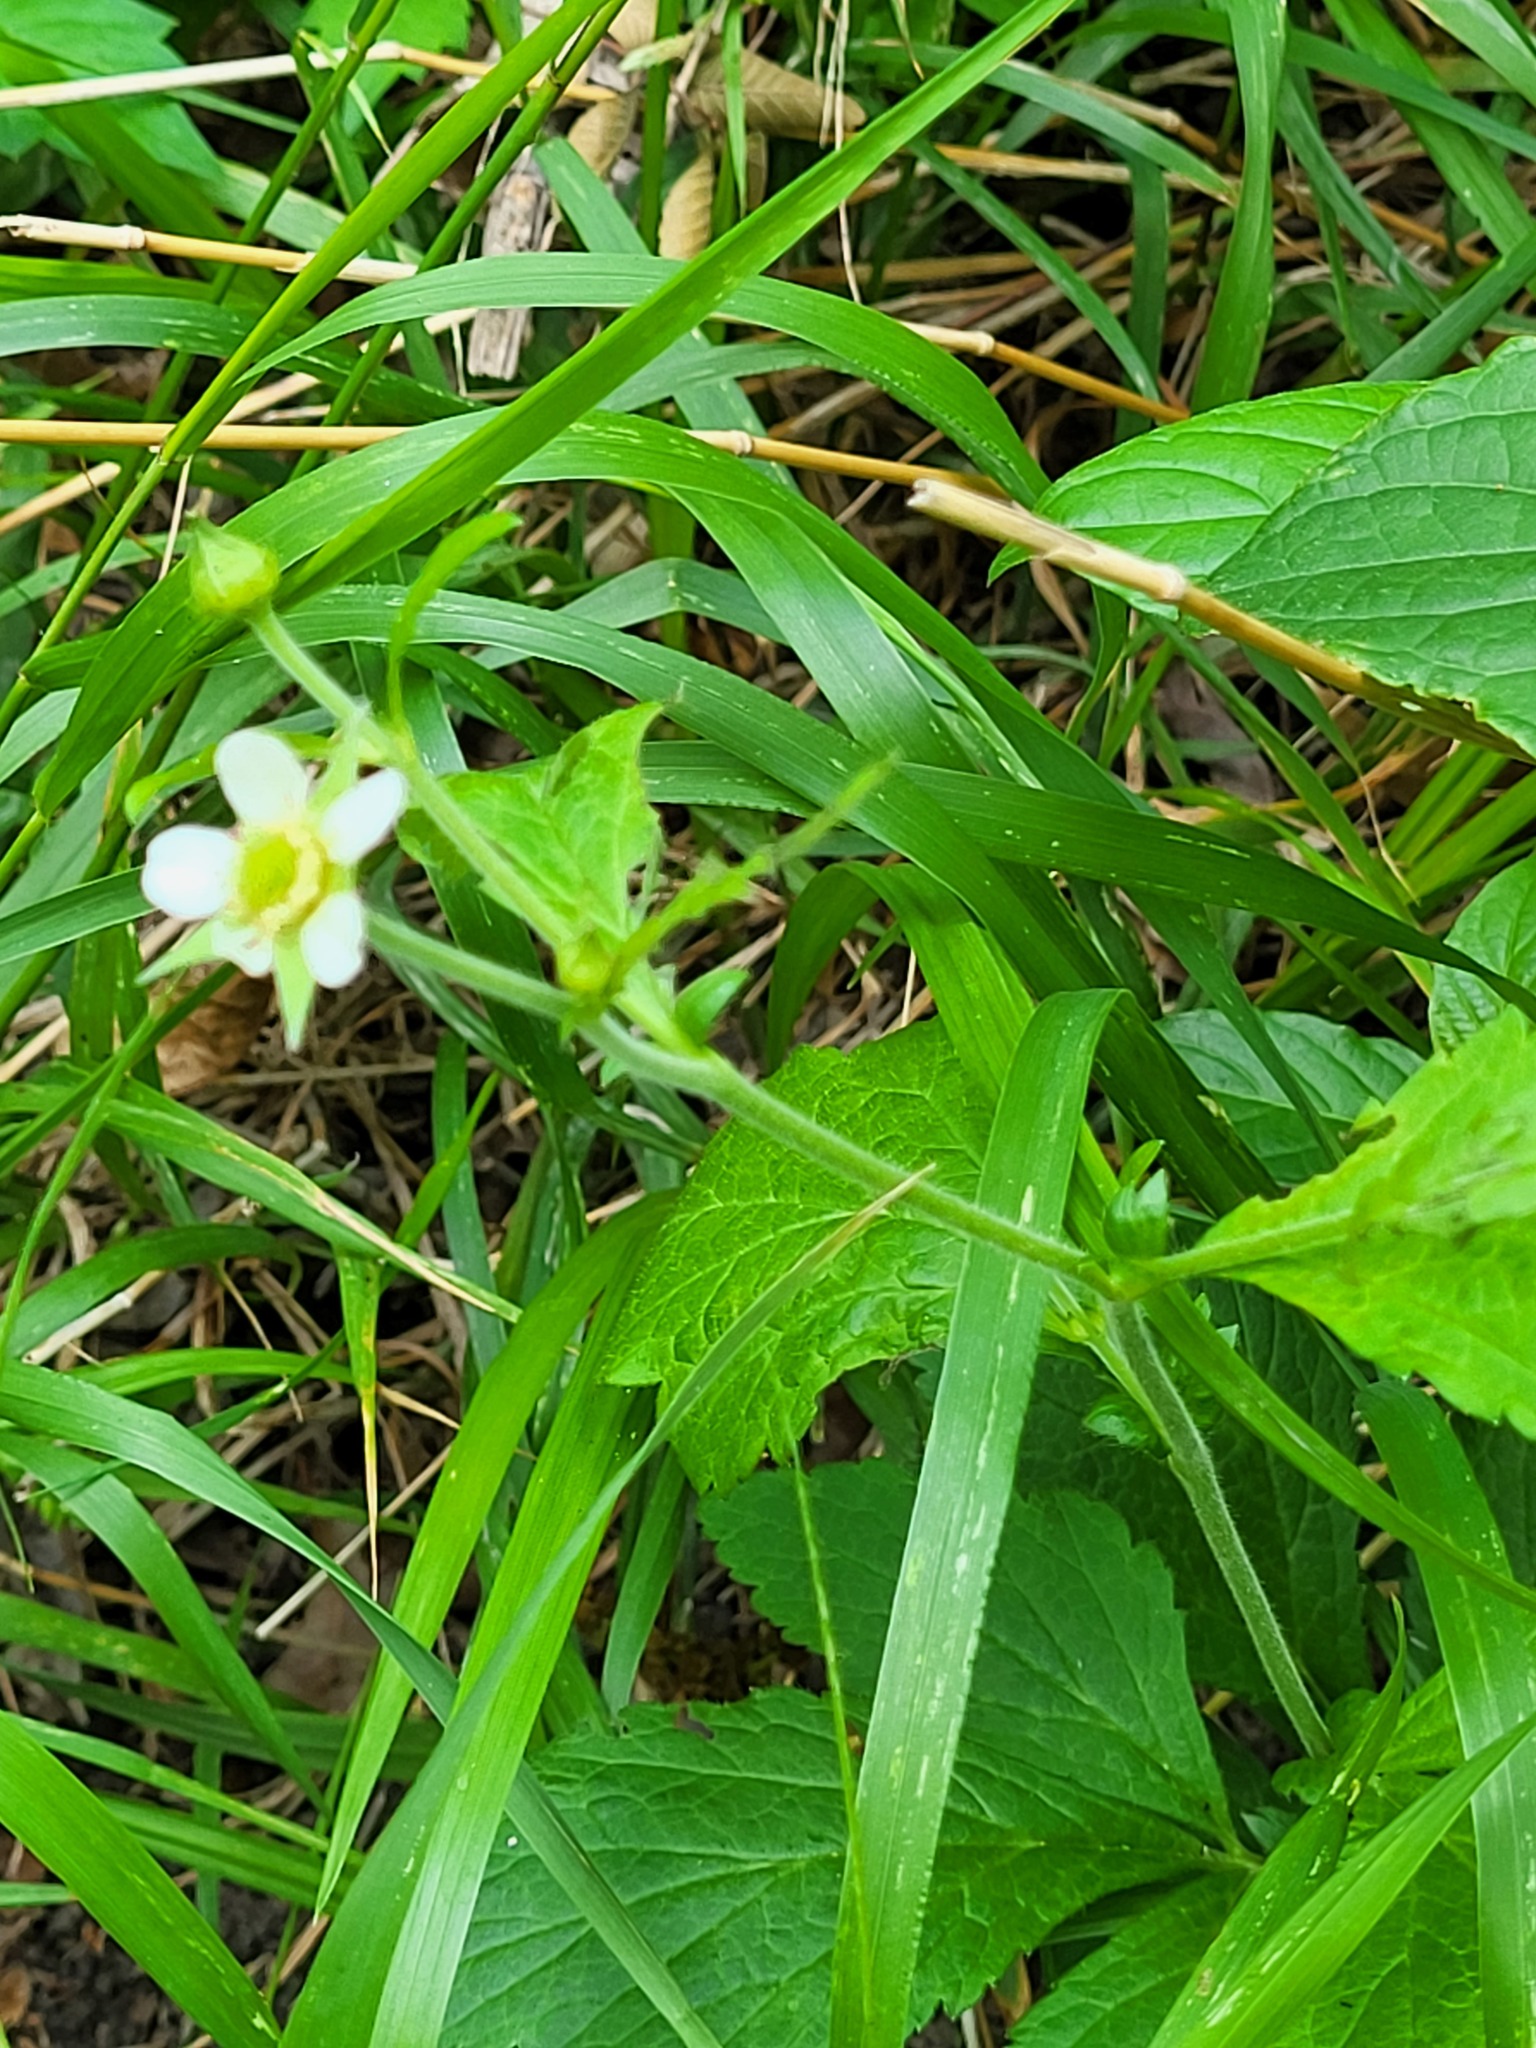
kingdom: Plantae
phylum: Tracheophyta
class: Magnoliopsida
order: Rosales
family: Rosaceae
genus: Geum
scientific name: Geum canadense
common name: White avens
